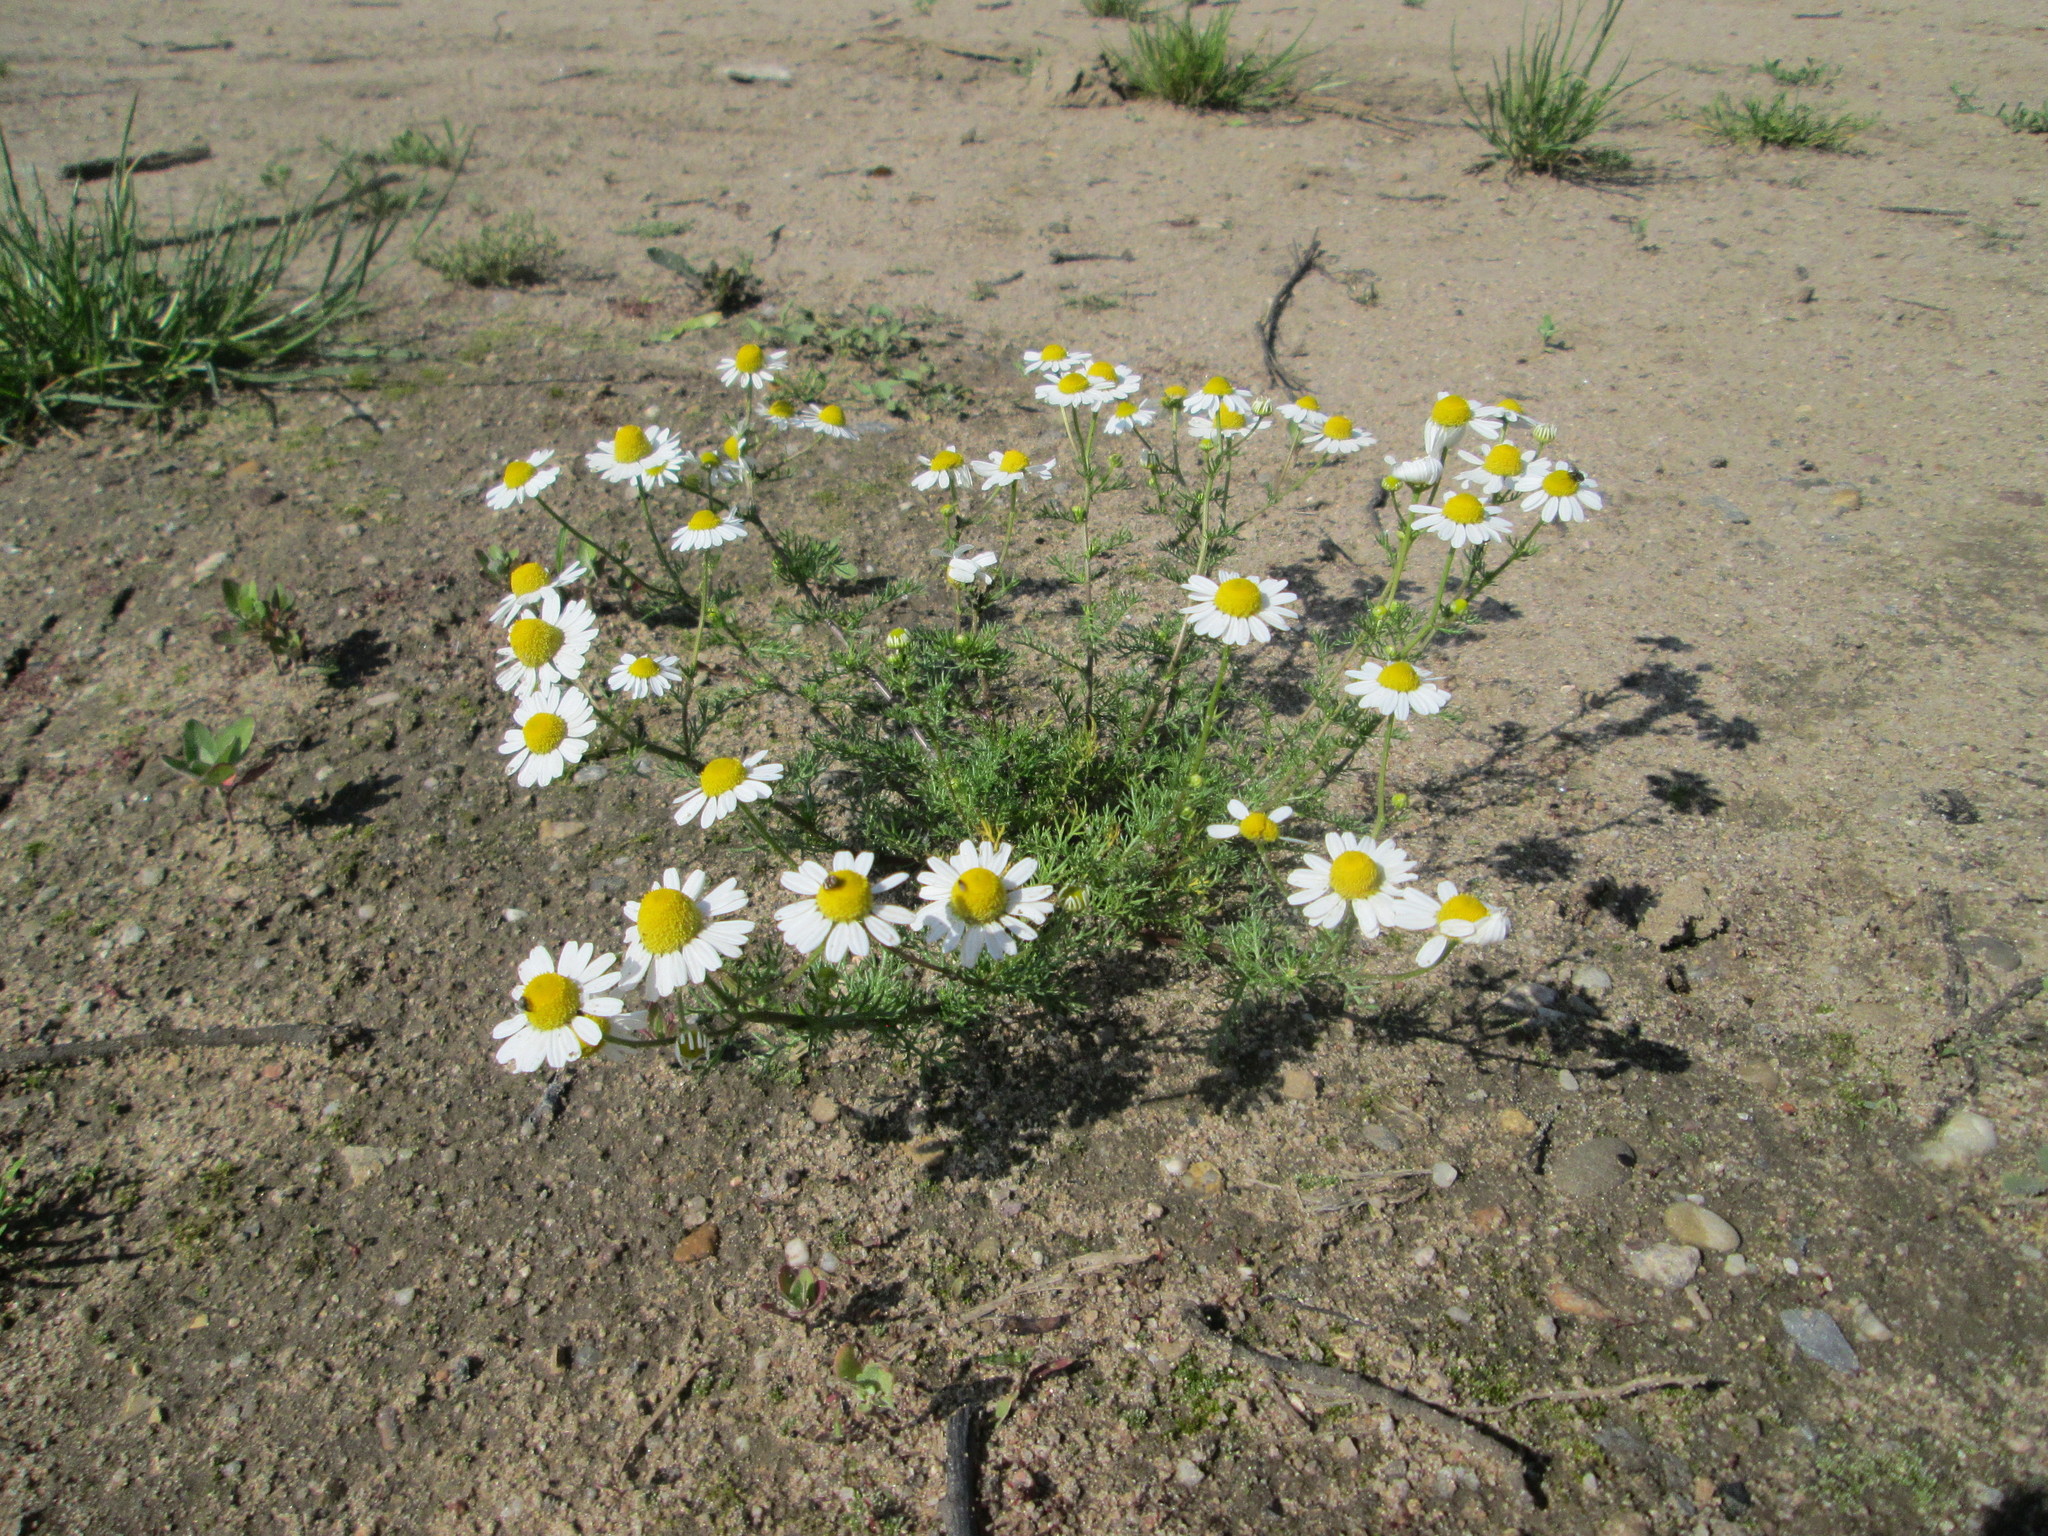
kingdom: Plantae
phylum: Tracheophyta
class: Magnoliopsida
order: Asterales
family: Asteraceae
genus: Tripleurospermum
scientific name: Tripleurospermum inodorum
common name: Scentless mayweed
